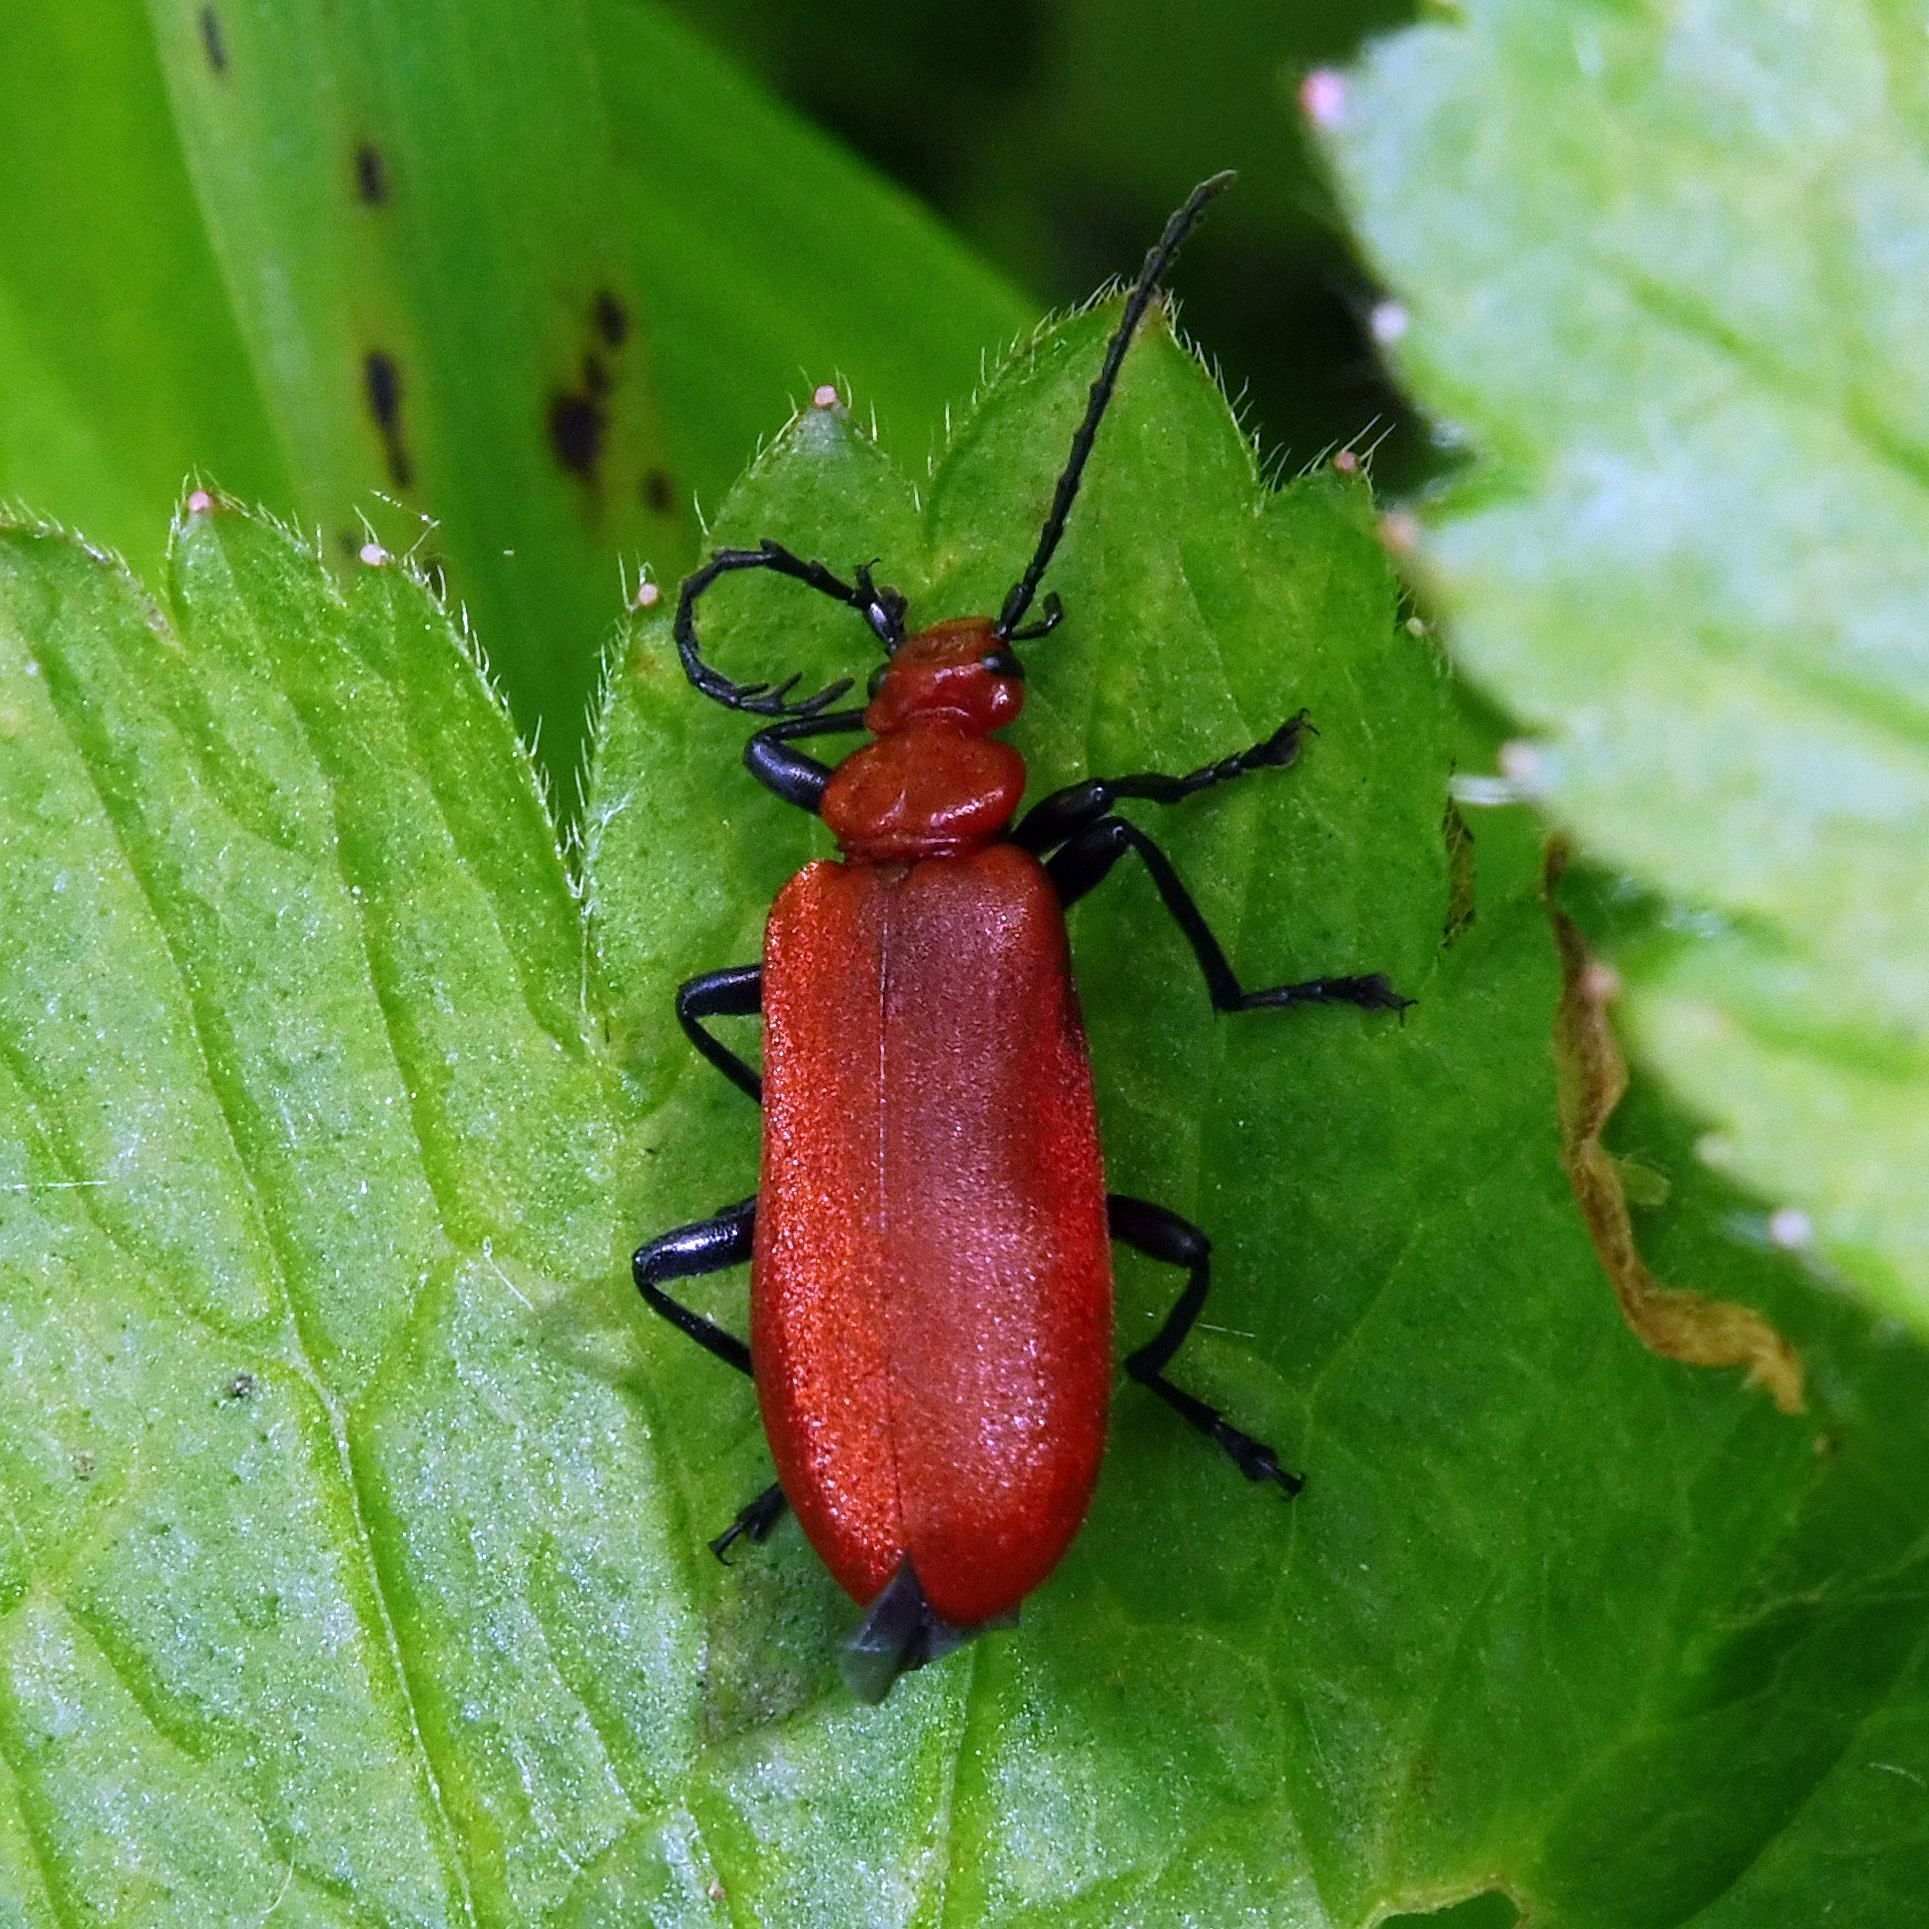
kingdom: Animalia
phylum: Arthropoda
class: Insecta
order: Coleoptera
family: Pyrochroidae
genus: Pyrochroa
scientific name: Pyrochroa serraticornis
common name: Red-headed cardinal beetle
